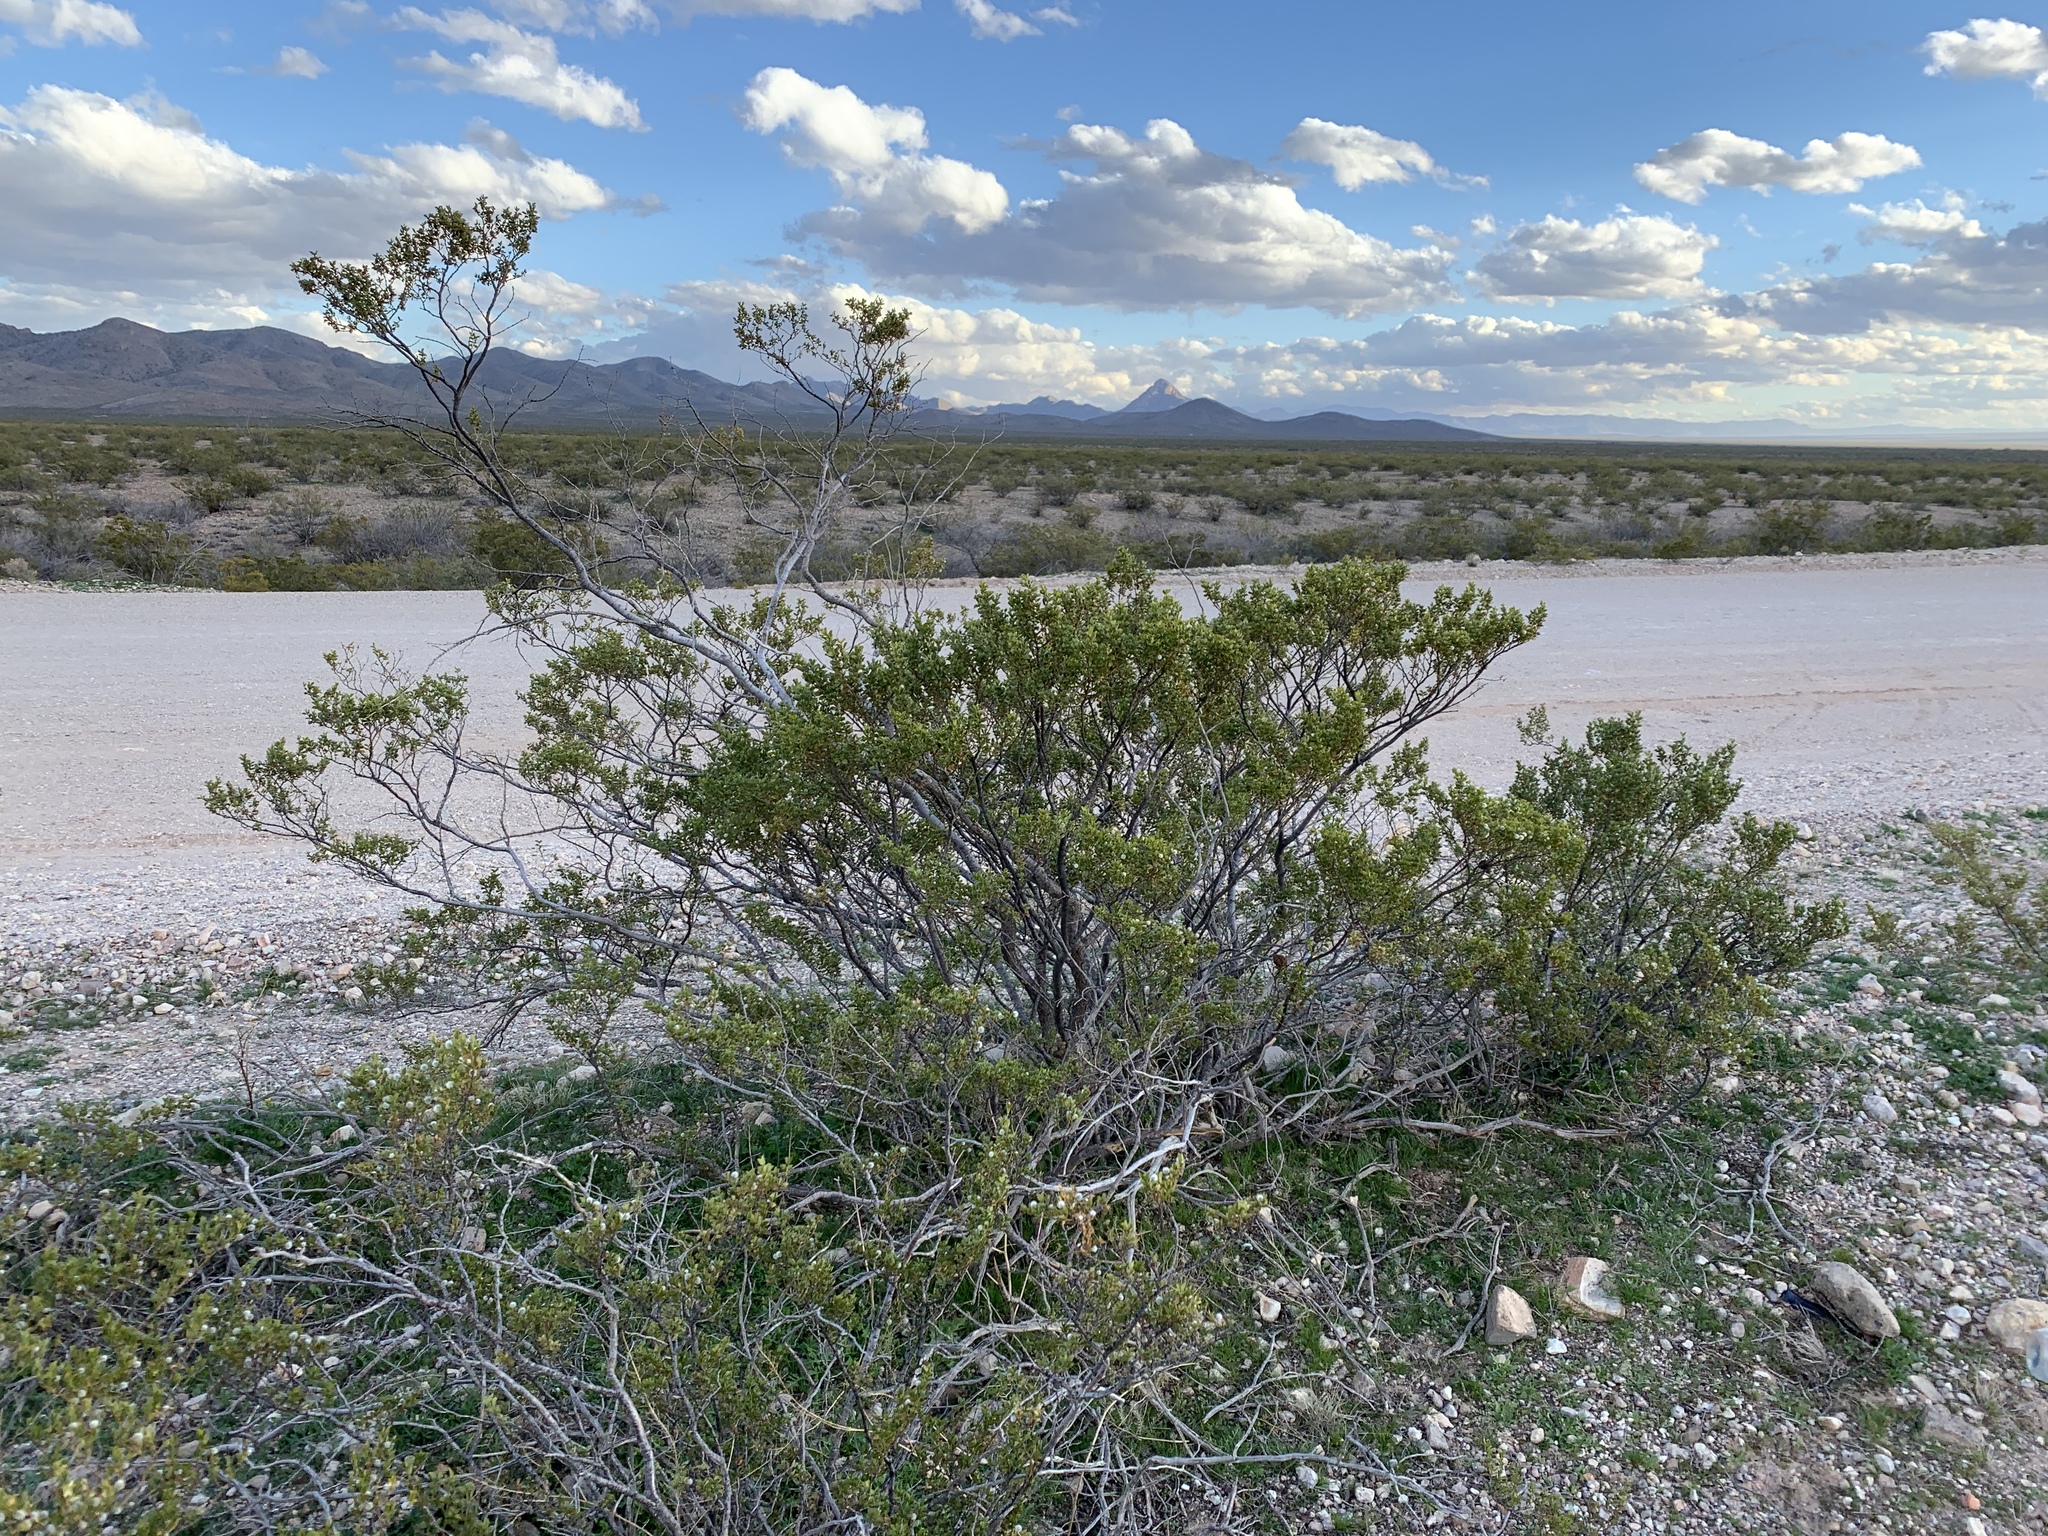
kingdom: Plantae
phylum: Tracheophyta
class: Magnoliopsida
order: Zygophyllales
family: Zygophyllaceae
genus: Larrea
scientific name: Larrea tridentata
